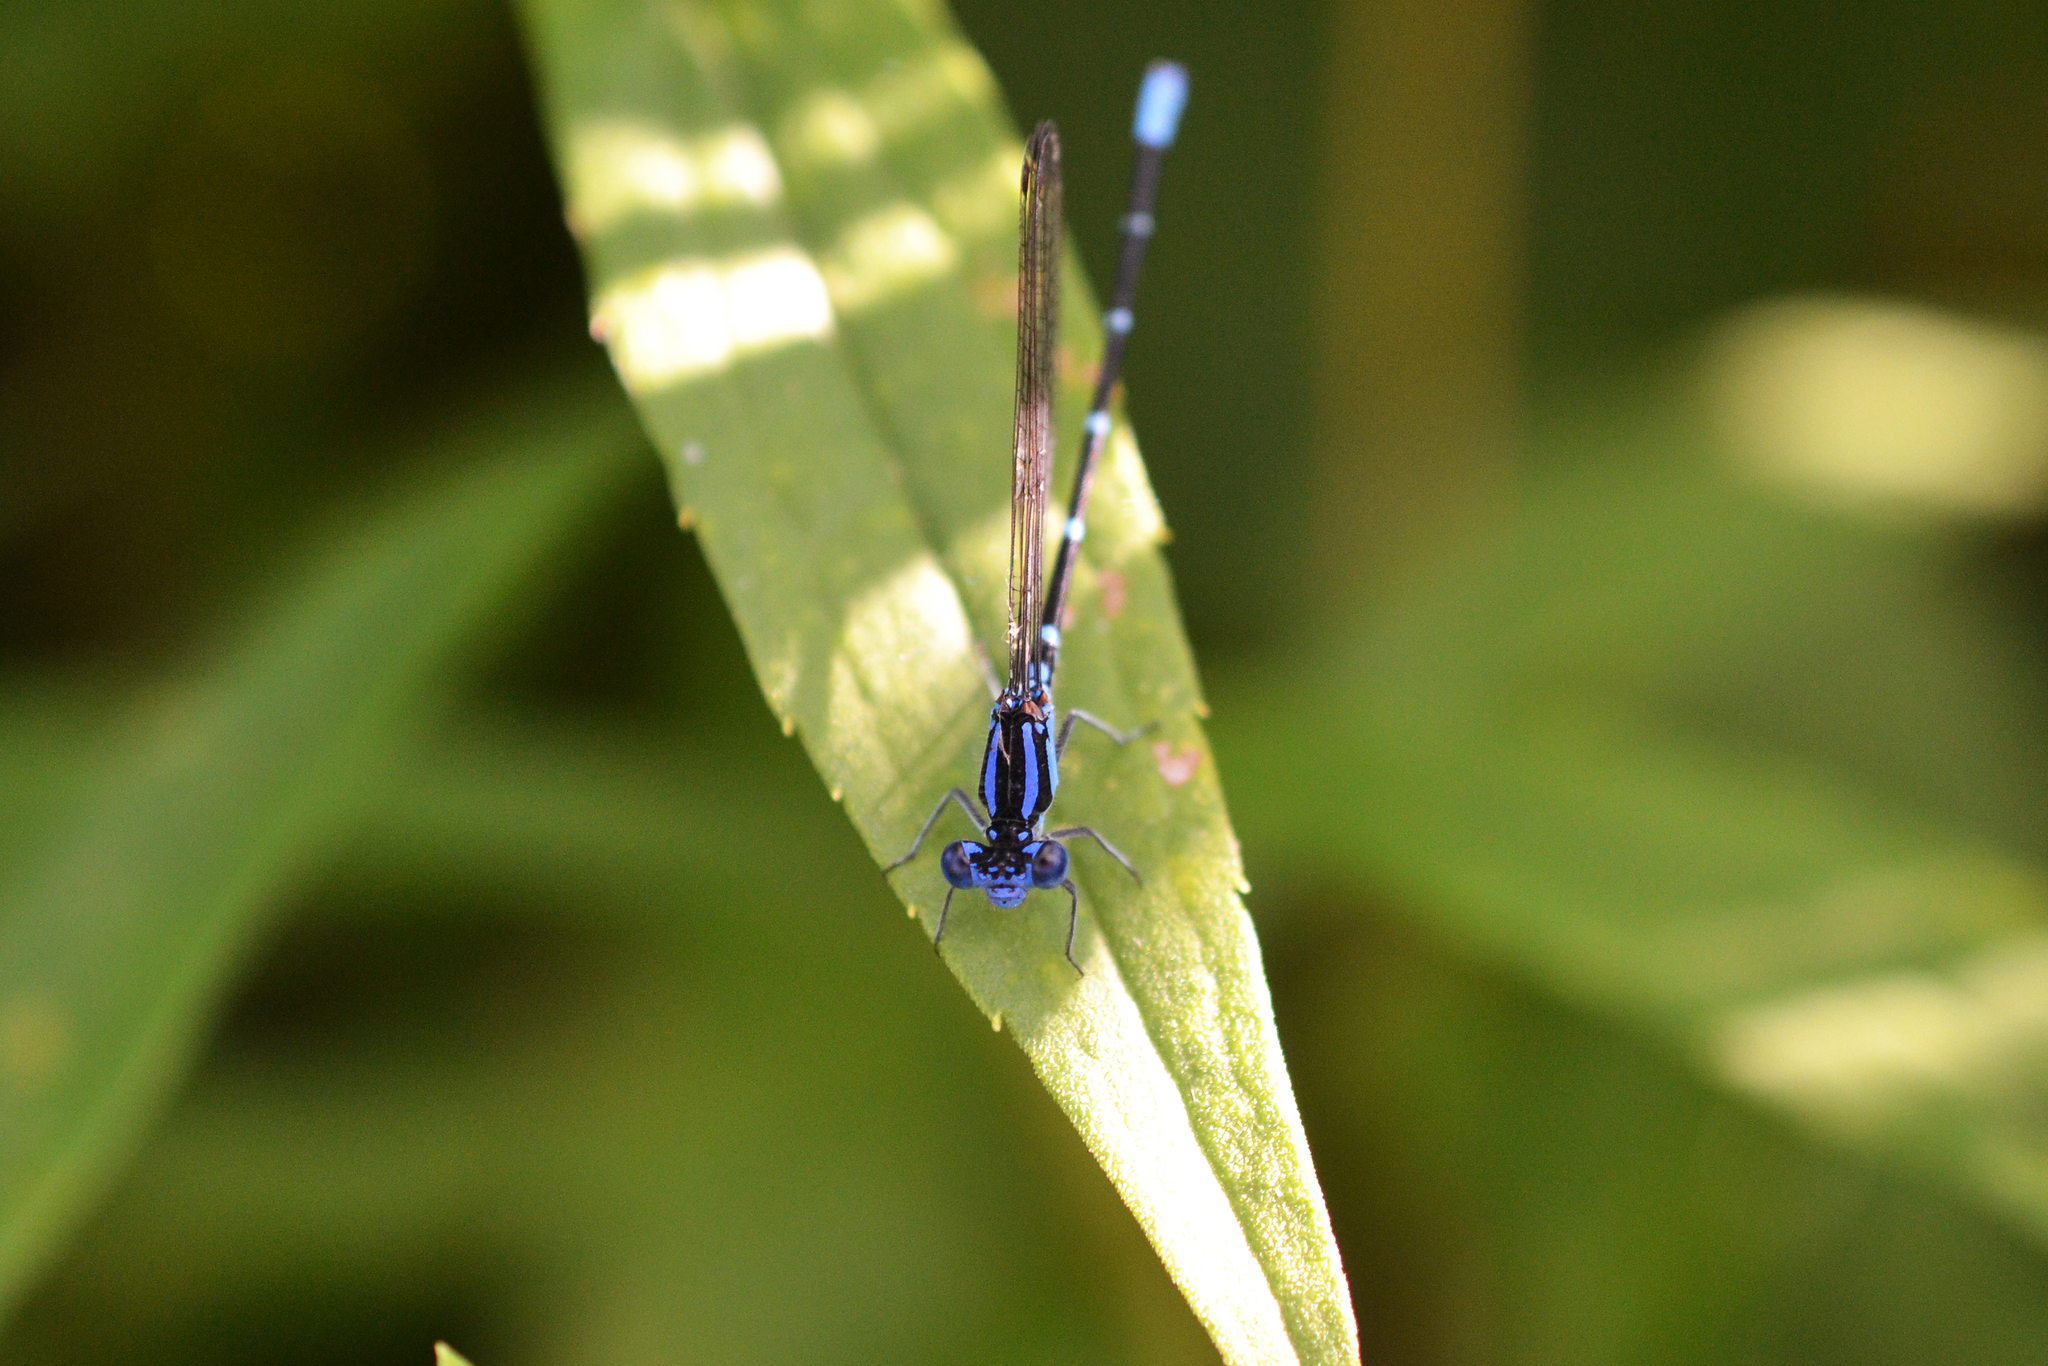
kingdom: Animalia
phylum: Arthropoda
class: Insecta
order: Odonata
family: Coenagrionidae
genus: Argia
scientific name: Argia sedula
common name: Blue-ringed dancer
